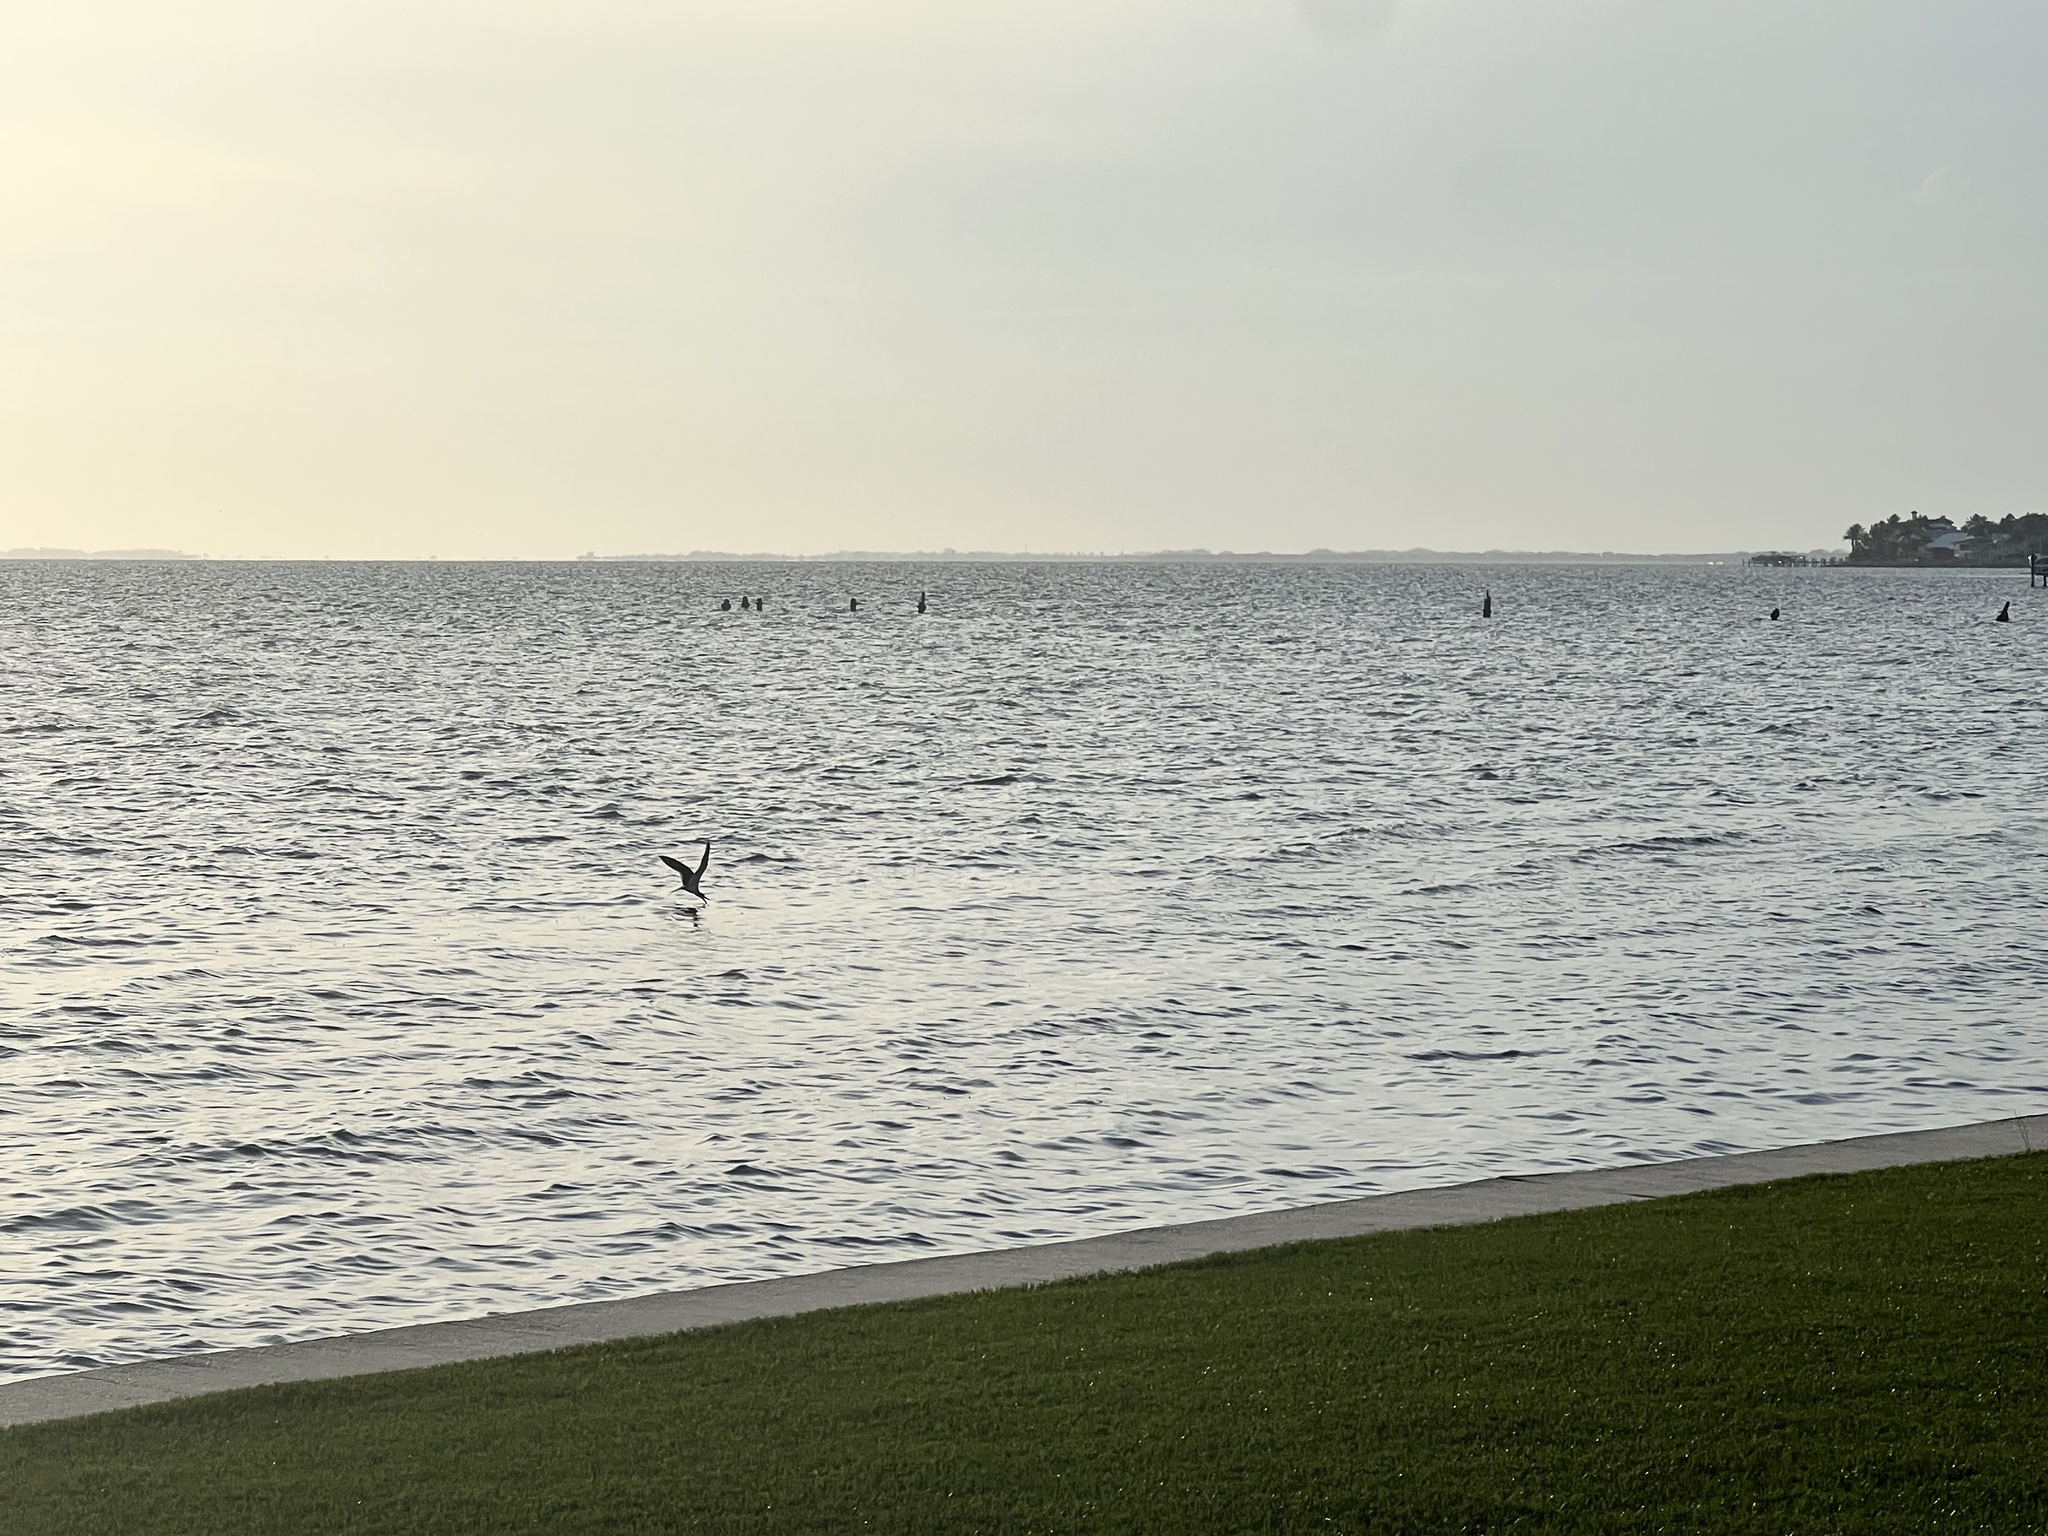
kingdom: Animalia
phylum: Chordata
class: Aves
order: Charadriiformes
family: Laridae
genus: Rynchops
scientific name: Rynchops niger
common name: Black skimmer
